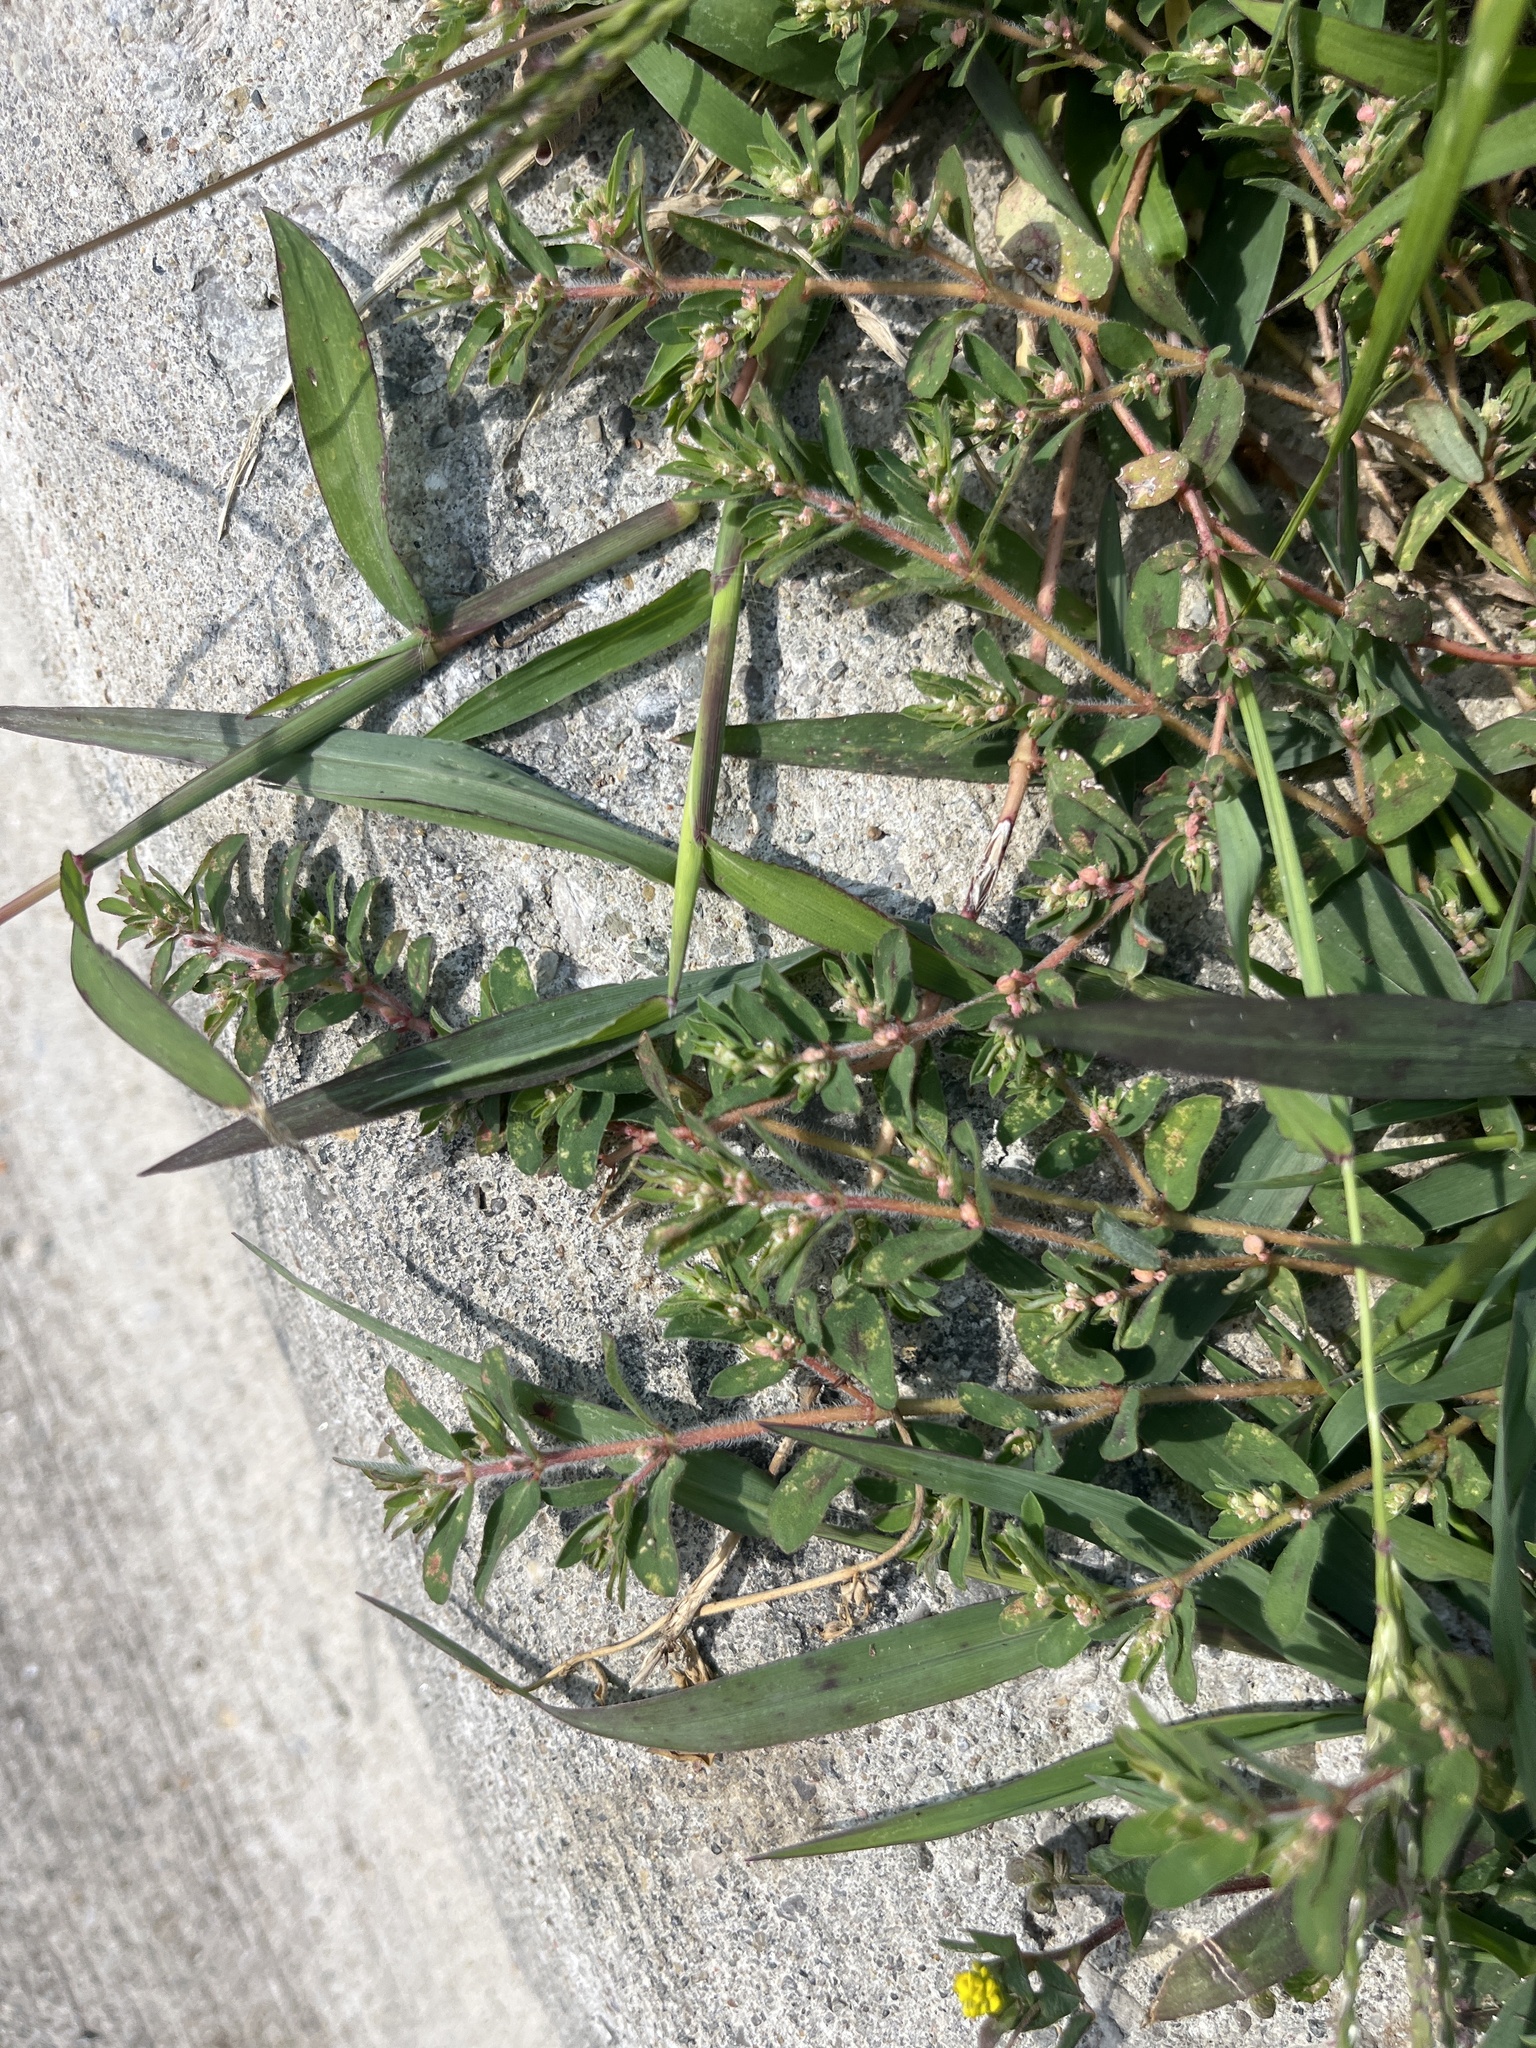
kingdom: Plantae
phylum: Tracheophyta
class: Magnoliopsida
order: Malpighiales
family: Euphorbiaceae
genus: Euphorbia
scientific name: Euphorbia maculata
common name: Spotted spurge
